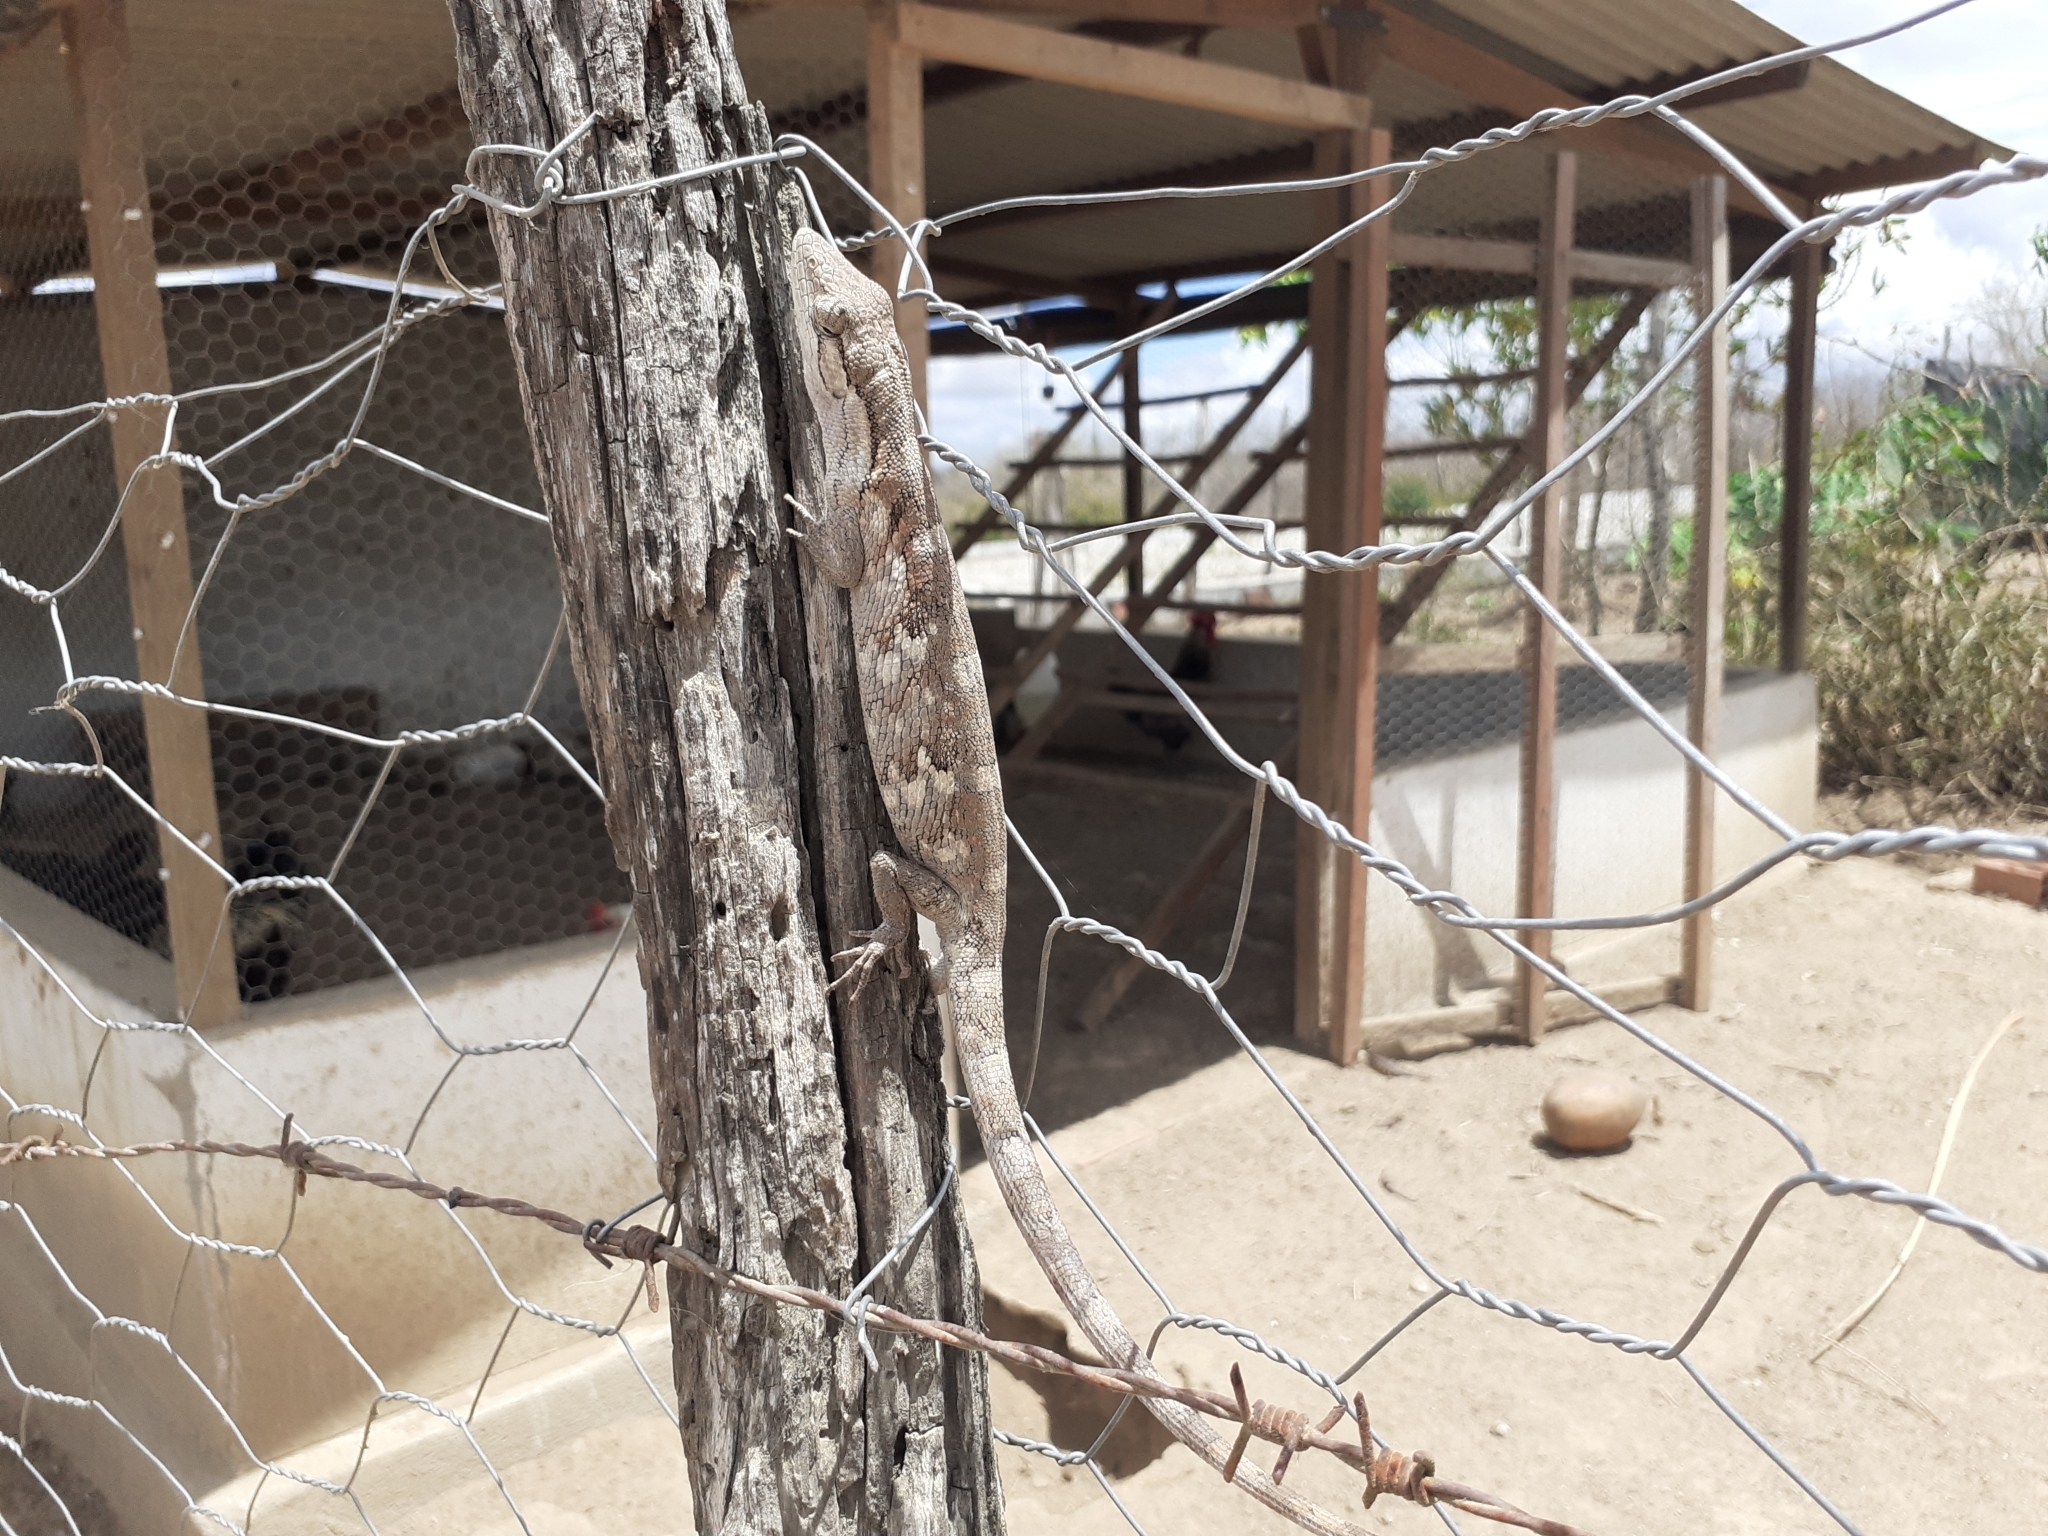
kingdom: Animalia
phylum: Chordata
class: Squamata
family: Polychrotidae
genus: Polychrus
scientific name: Polychrus acutirostris
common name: Brazilian bush anole
